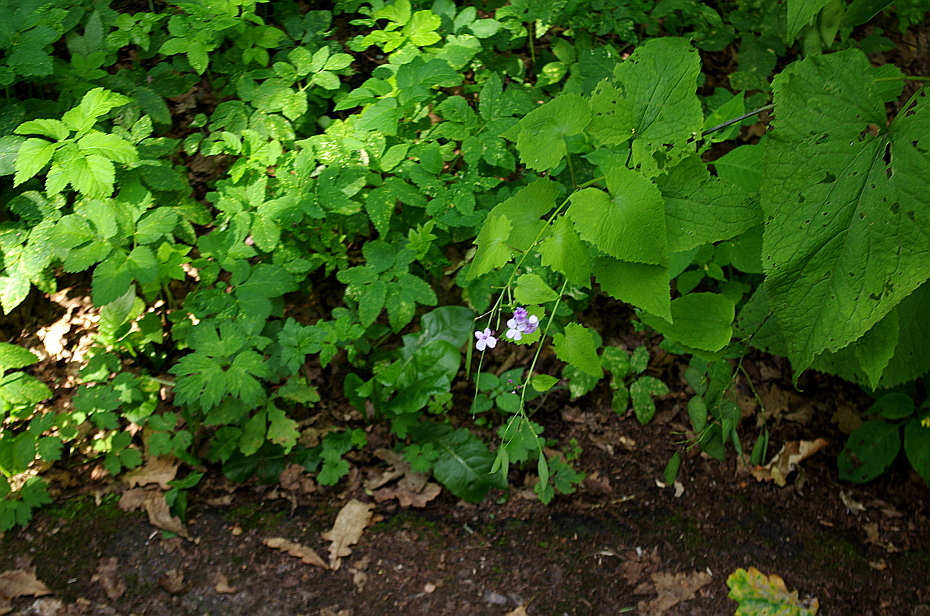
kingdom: Plantae
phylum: Tracheophyta
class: Magnoliopsida
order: Brassicales
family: Brassicaceae
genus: Lunaria
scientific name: Lunaria rediviva
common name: Perennial honesty
